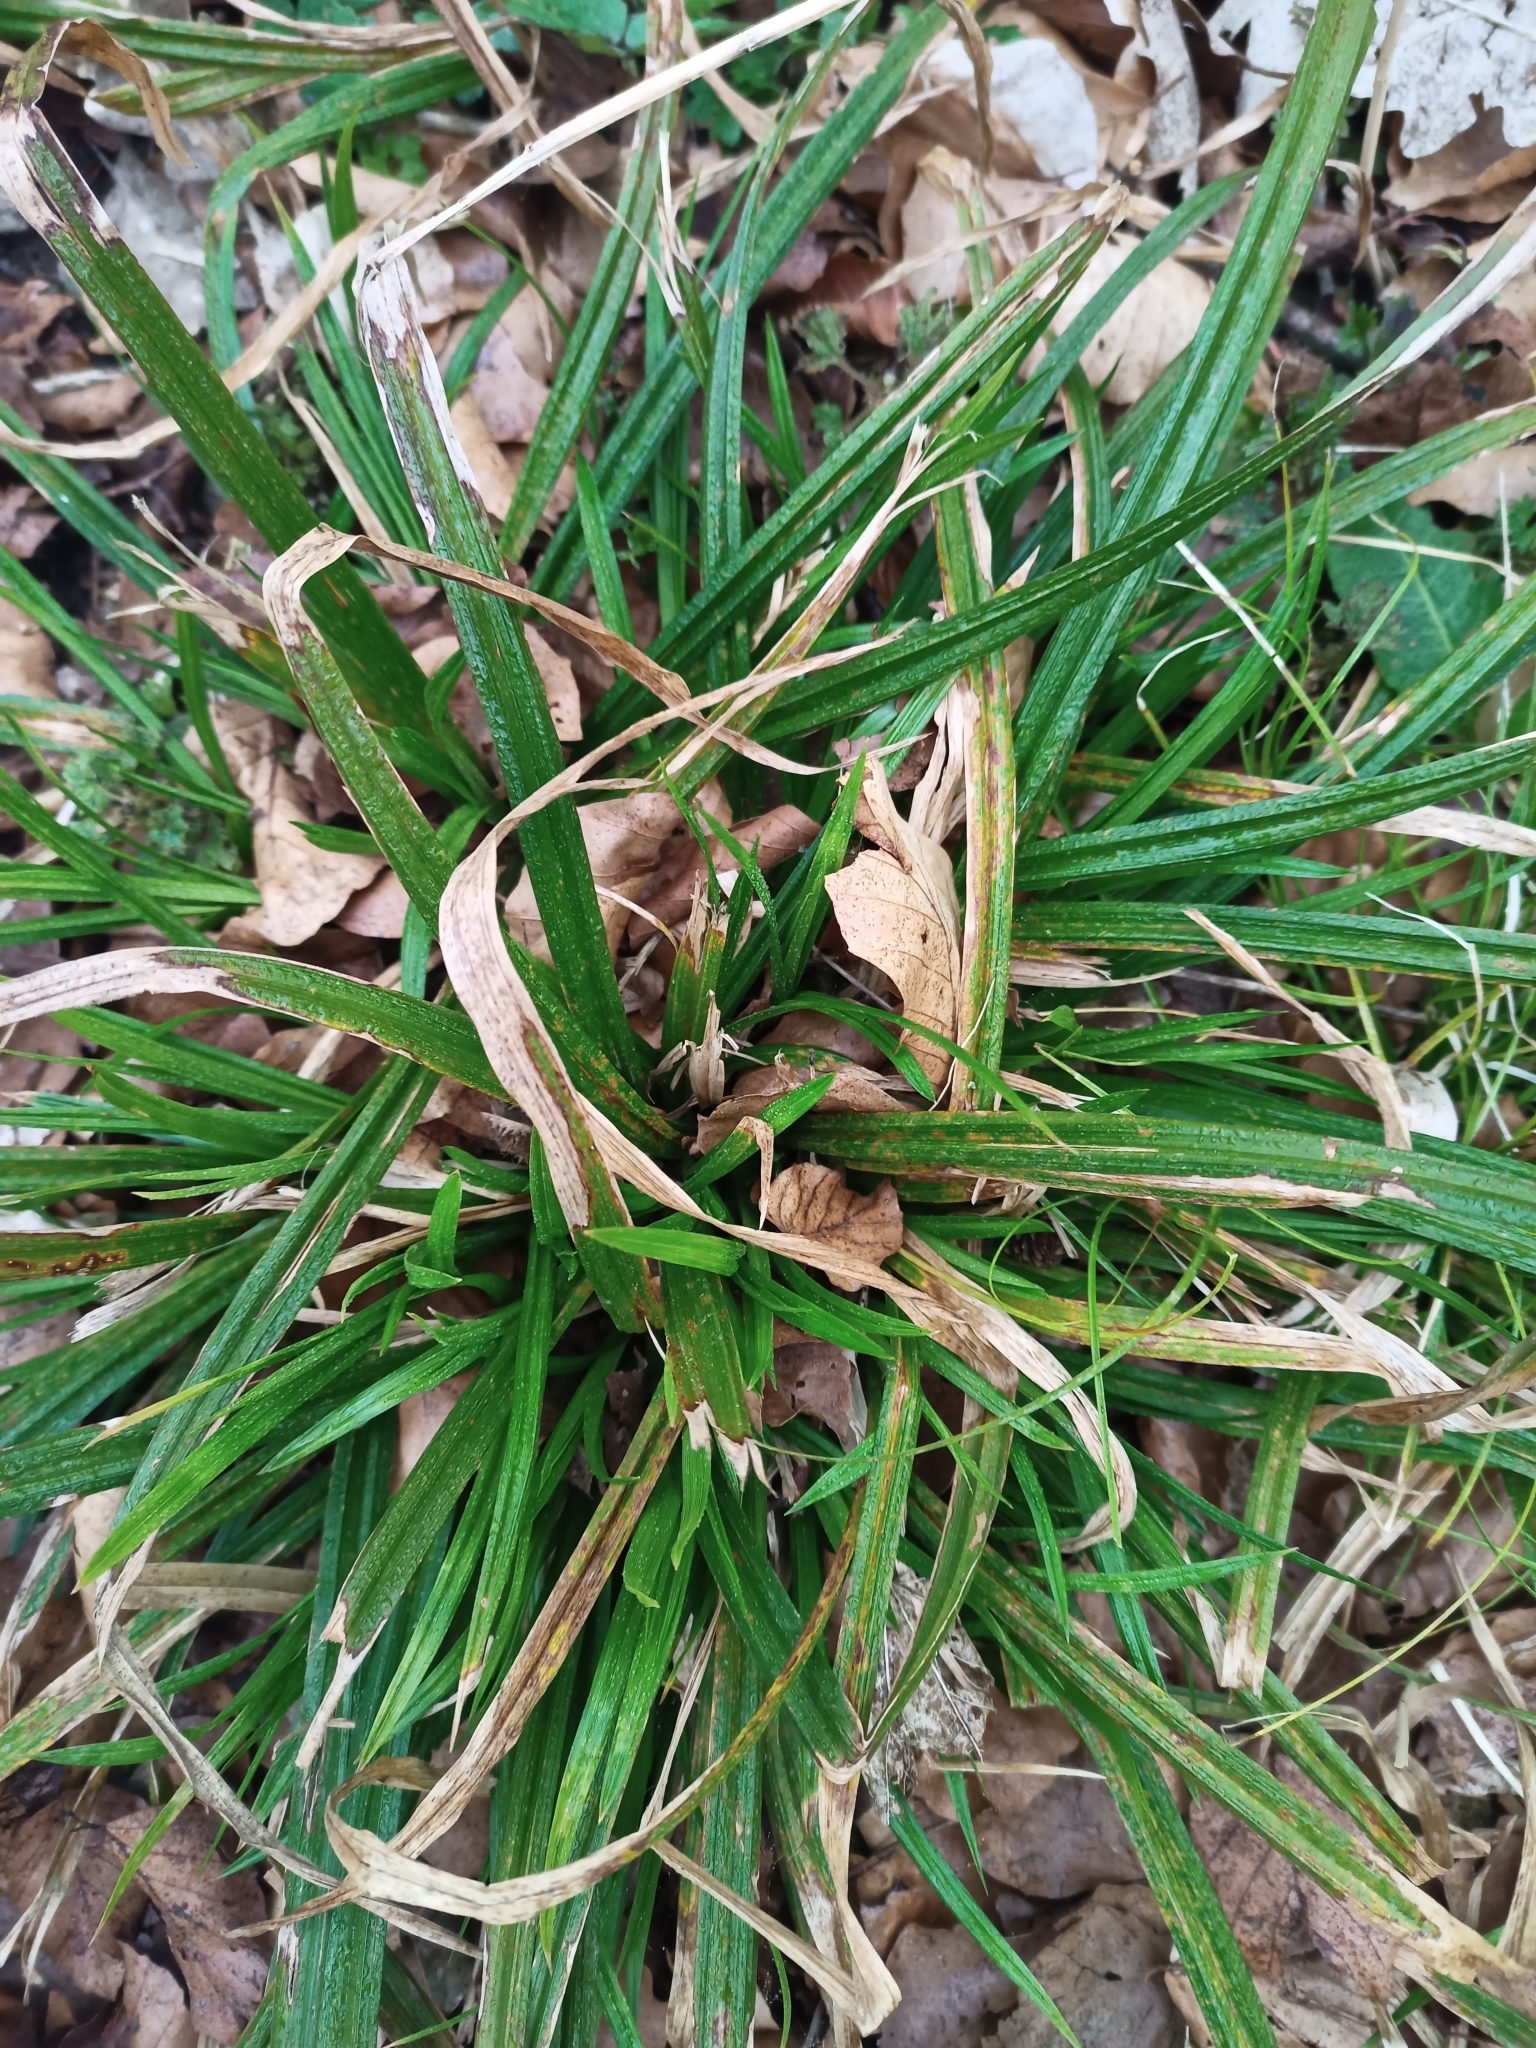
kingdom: Plantae
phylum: Tracheophyta
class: Liliopsida
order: Poales
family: Cyperaceae
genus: Carex
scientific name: Carex sylvatica
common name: Wood-sedge
